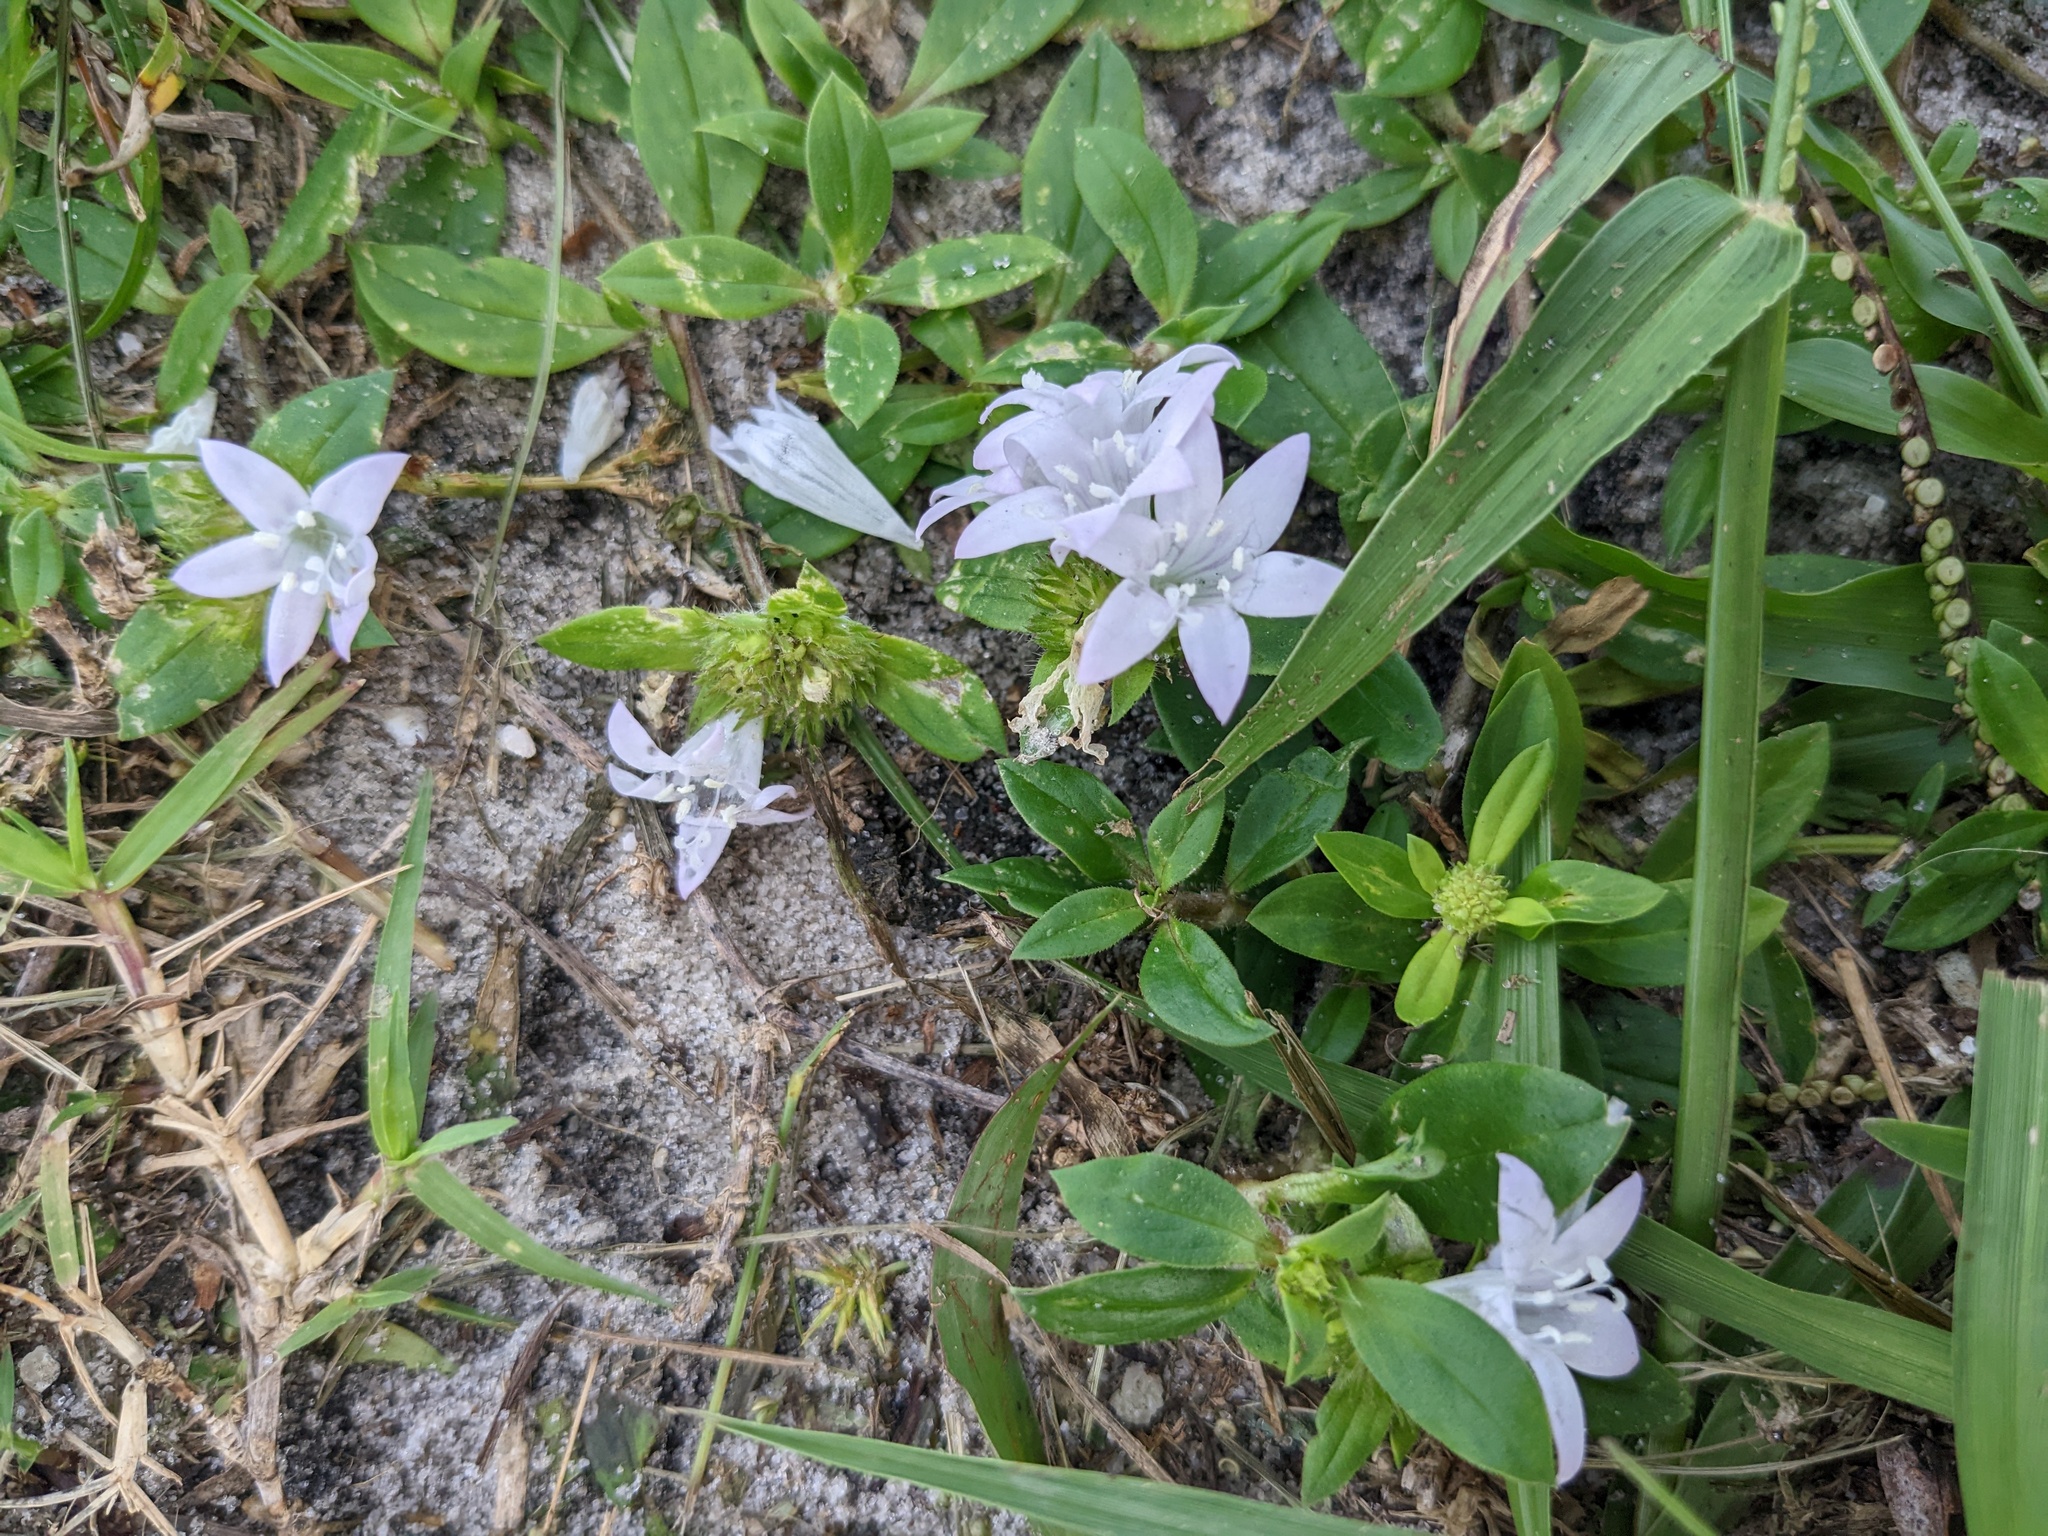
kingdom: Plantae
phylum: Tracheophyta
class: Magnoliopsida
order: Gentianales
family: Rubiaceae
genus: Richardia
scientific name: Richardia grandiflora
